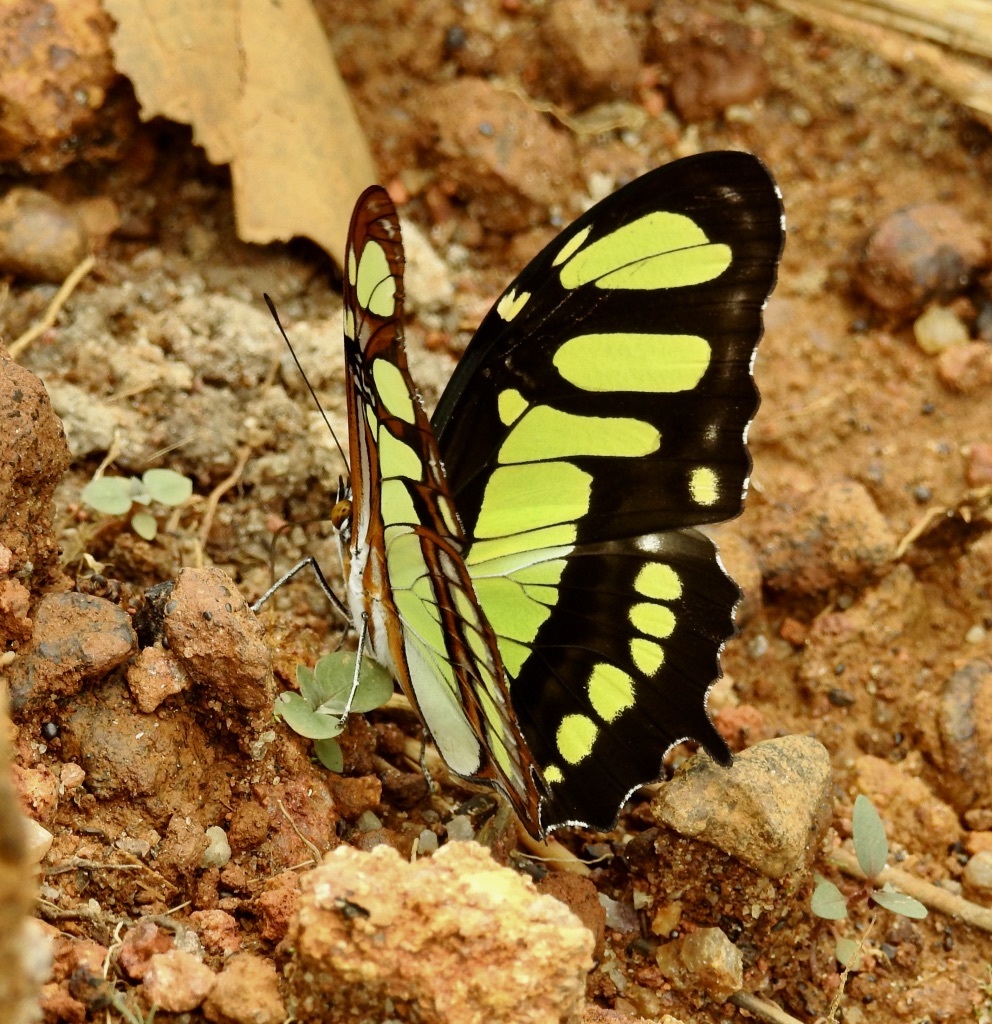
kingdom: Animalia
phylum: Arthropoda
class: Insecta
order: Lepidoptera
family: Nymphalidae
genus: Siproeta
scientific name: Siproeta stelenes
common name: Malachite
